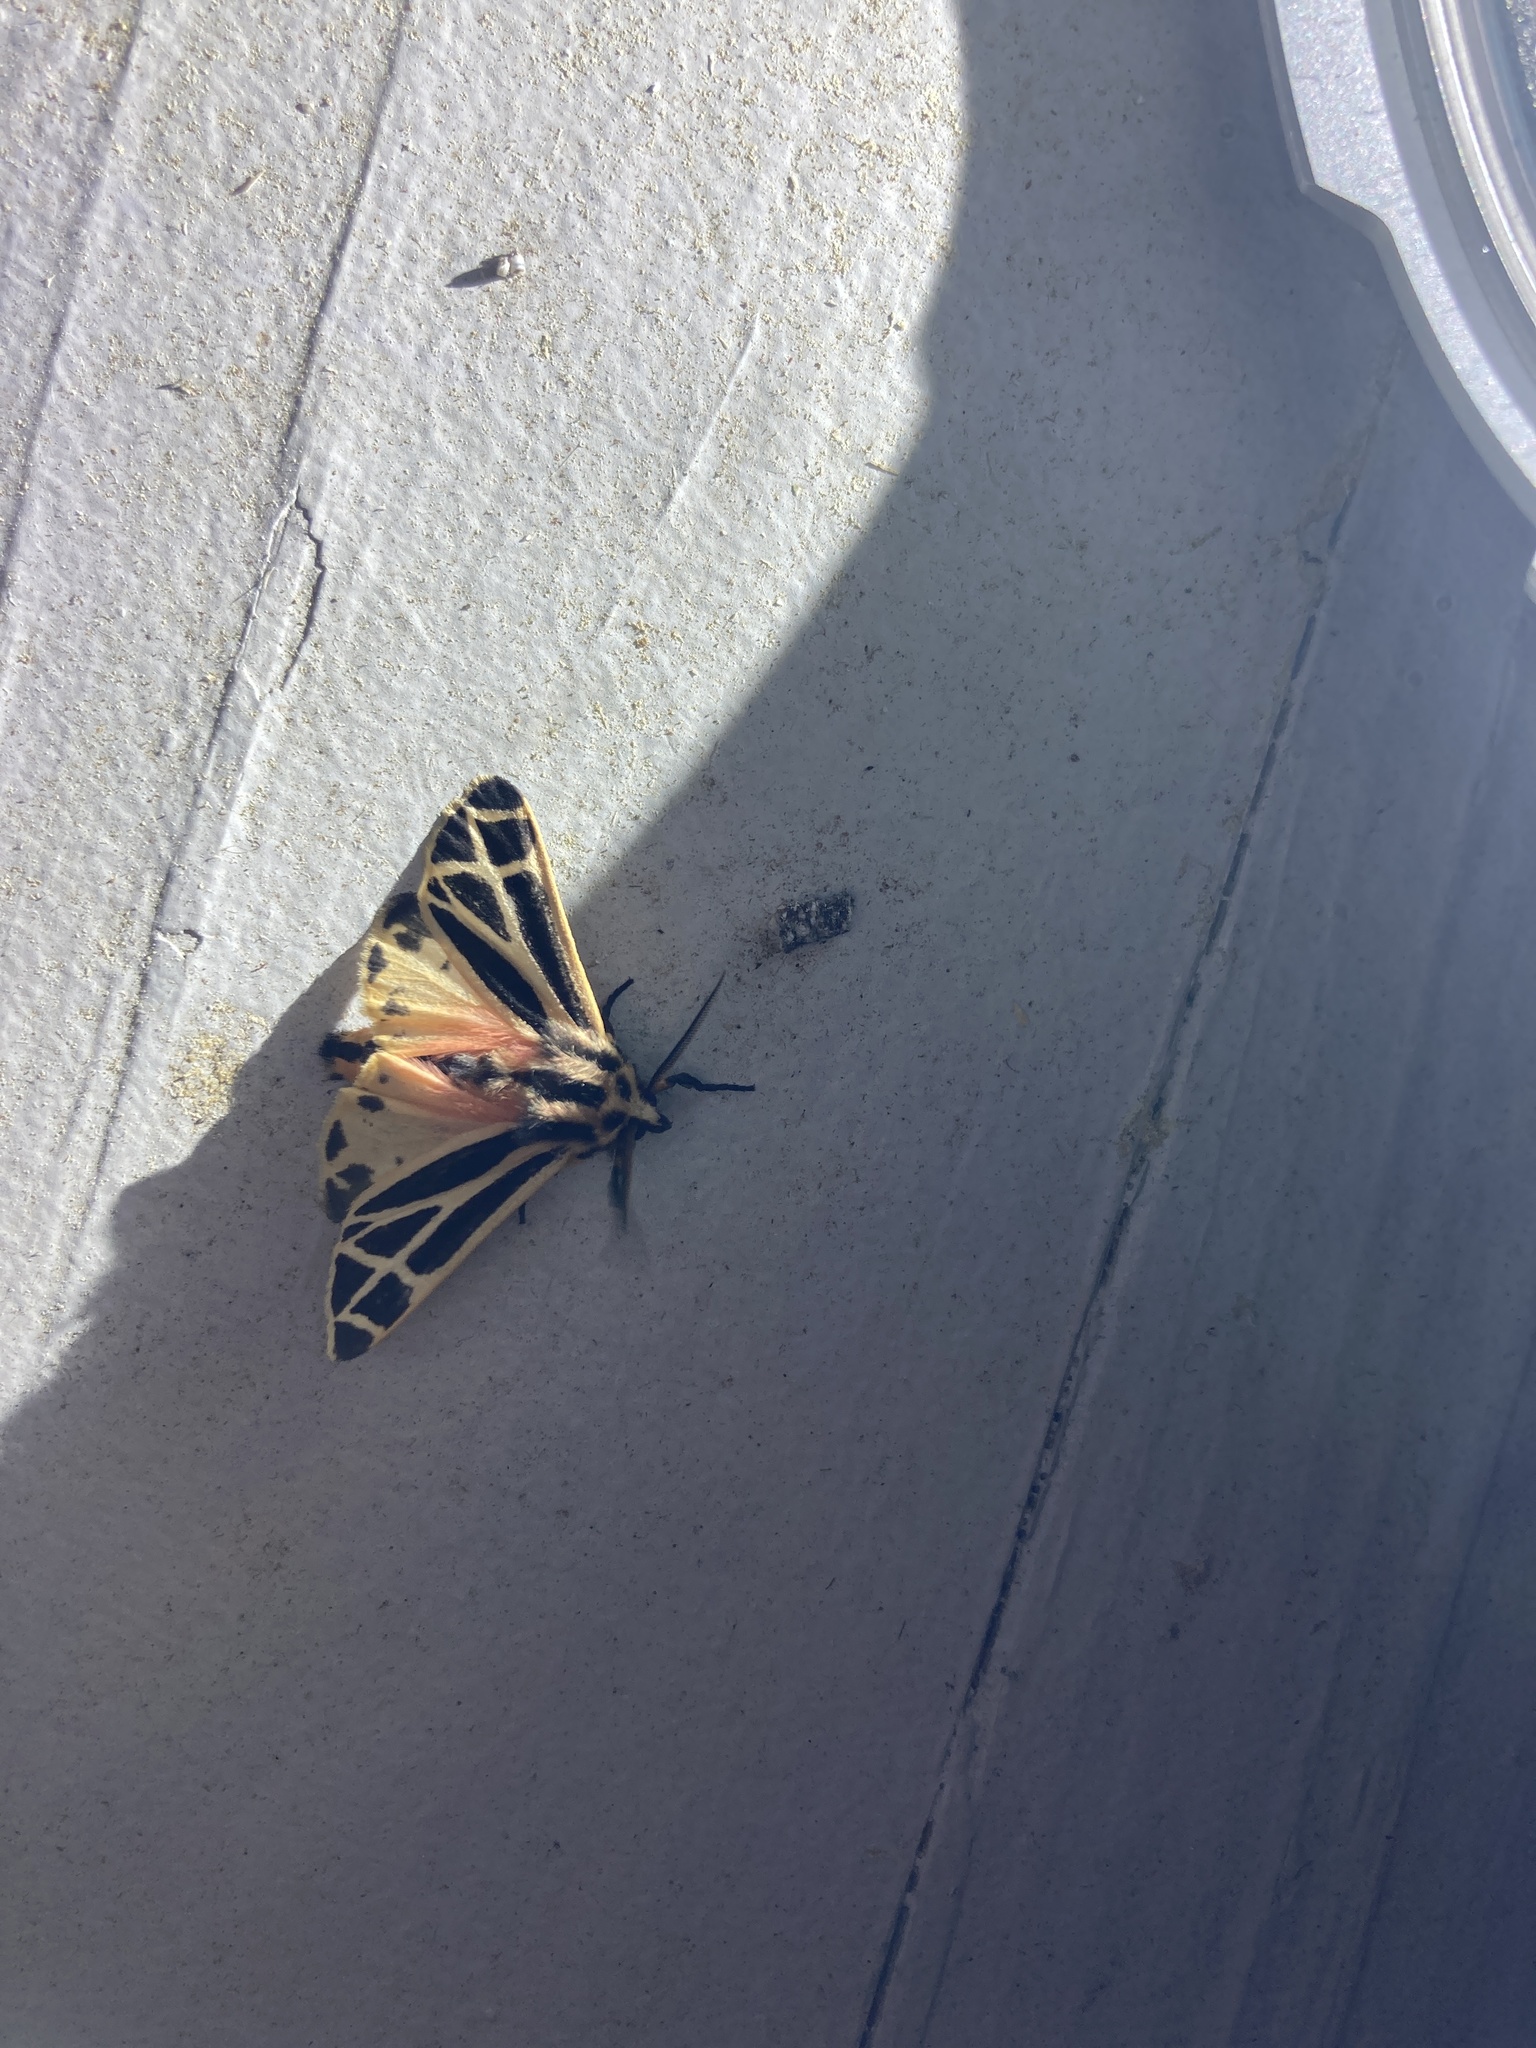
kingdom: Animalia
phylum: Arthropoda
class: Insecta
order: Lepidoptera
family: Erebidae
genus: Apantesis
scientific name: Apantesis phalerata
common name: Harnessed tiger moth
